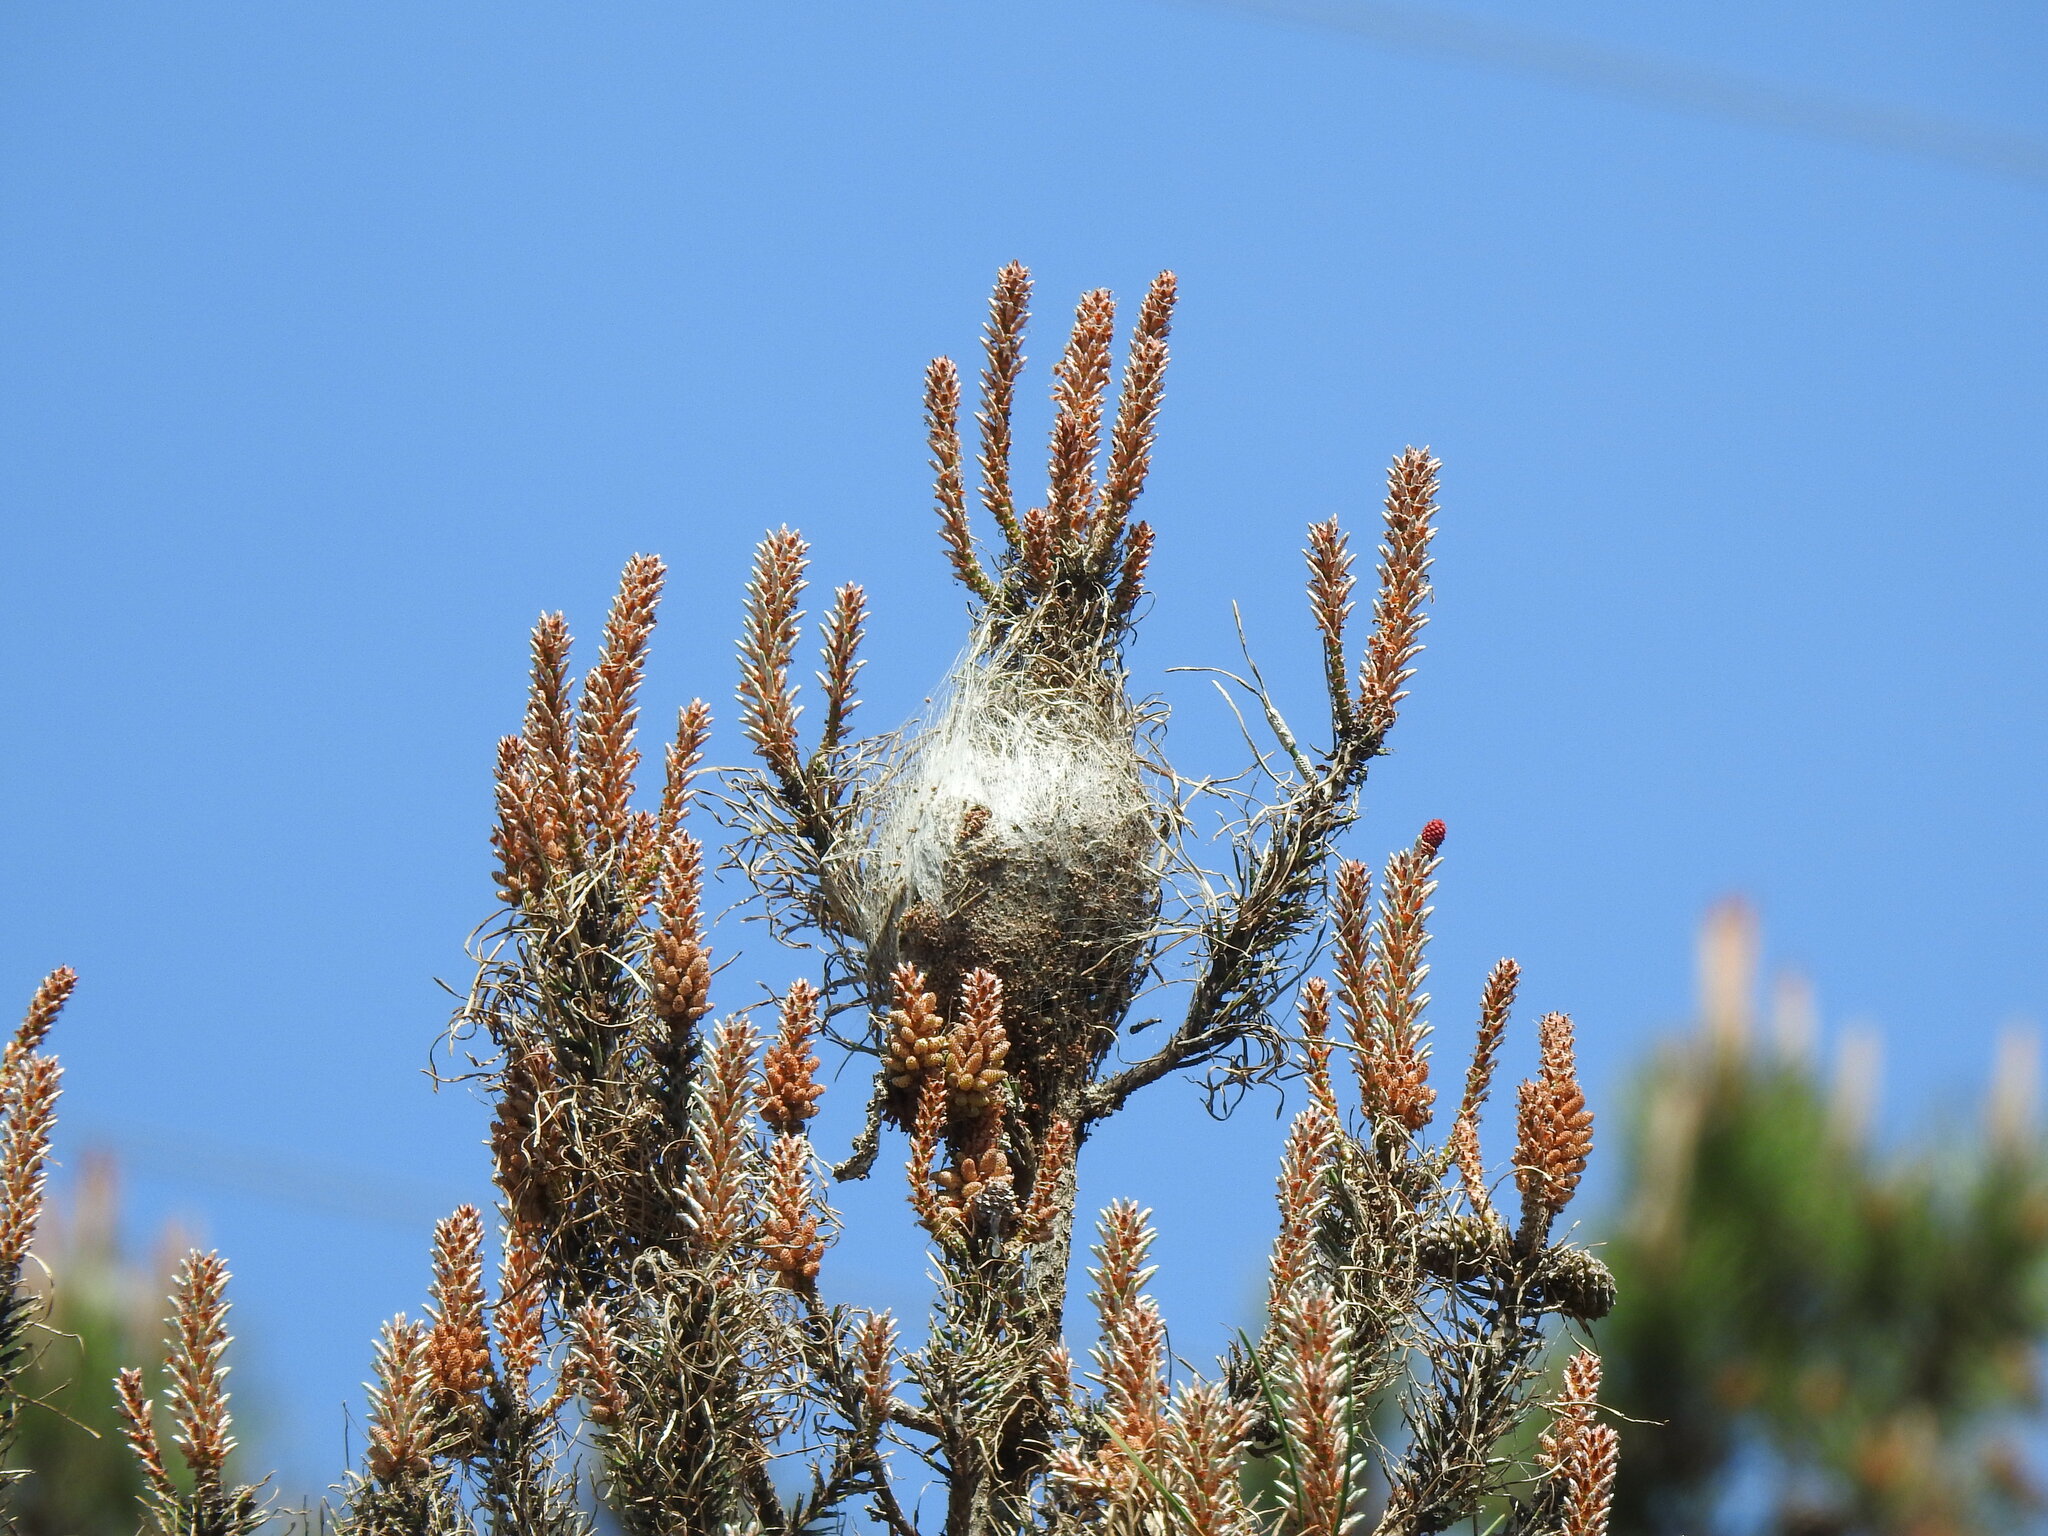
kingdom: Animalia
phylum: Arthropoda
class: Insecta
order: Lepidoptera
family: Notodontidae
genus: Thaumetopoea
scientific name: Thaumetopoea pityocampa
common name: Pine processionary
